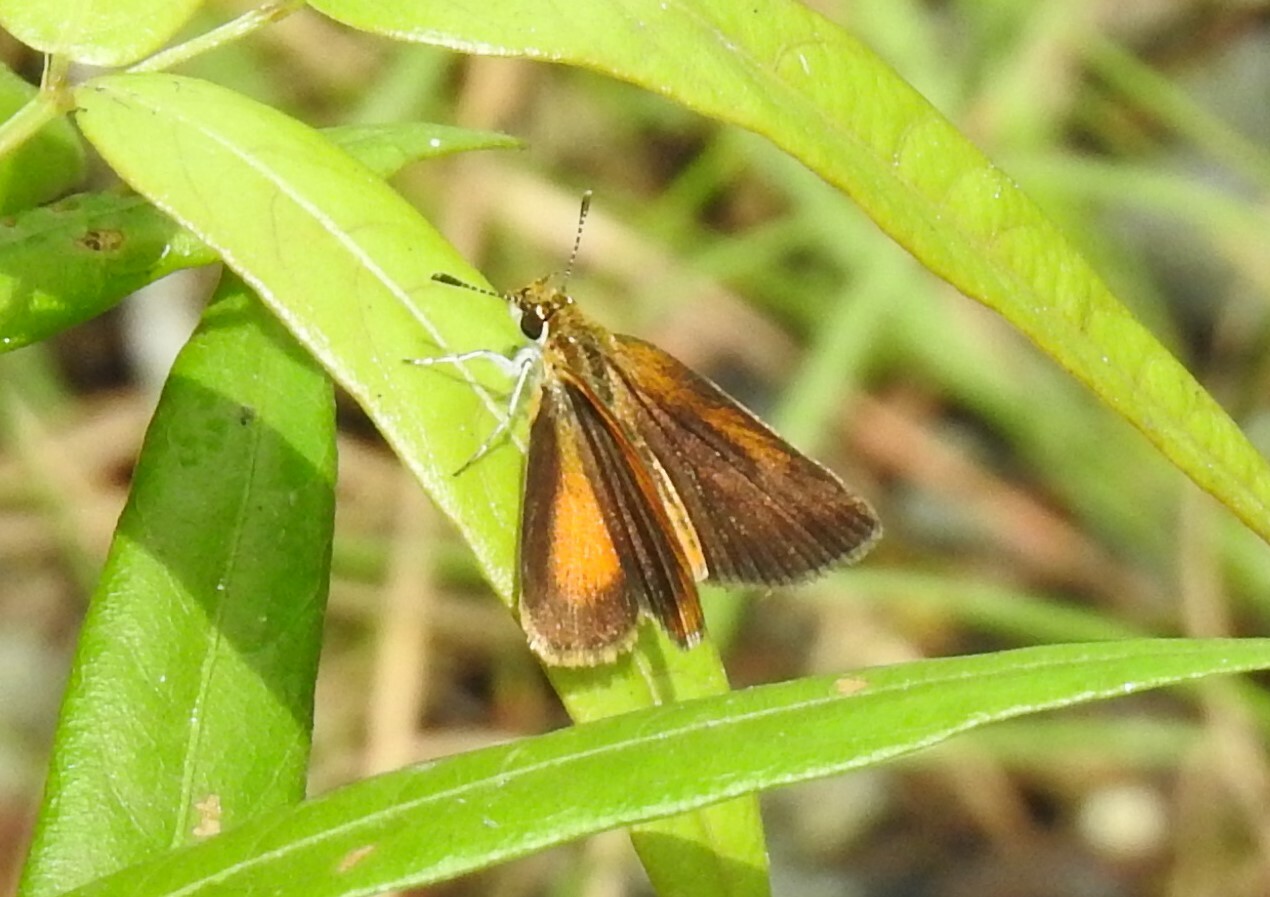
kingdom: Animalia
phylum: Arthropoda
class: Insecta
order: Lepidoptera
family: Hesperiidae
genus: Ancyloxypha
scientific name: Ancyloxypha numitor
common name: Least skipper
